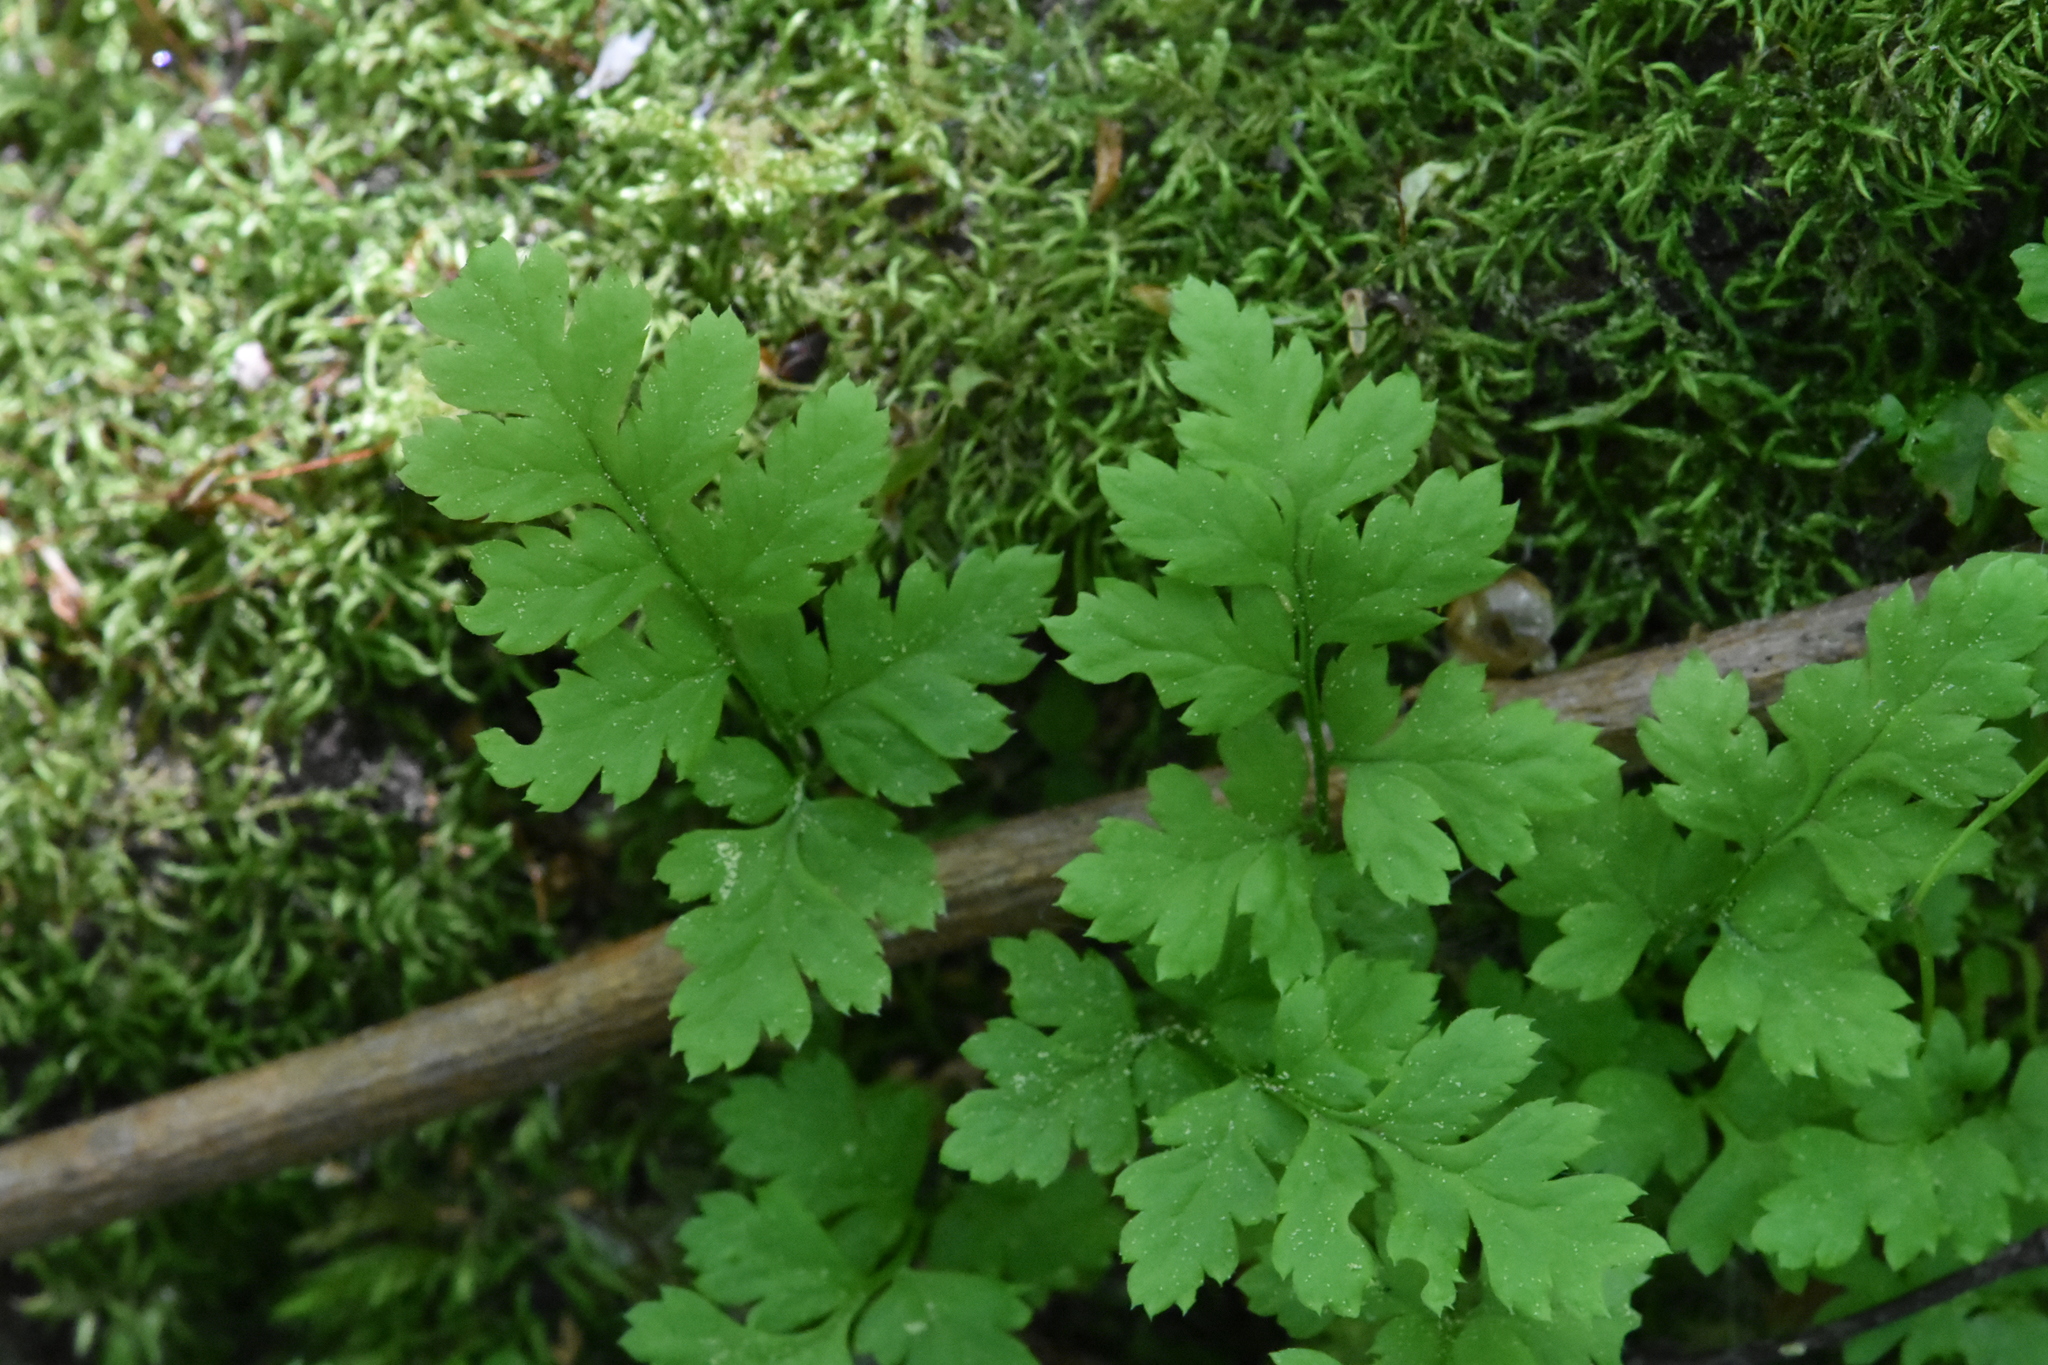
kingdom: Plantae
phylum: Tracheophyta
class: Polypodiopsida
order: Polypodiales
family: Dryopteridaceae
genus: Dryopteris
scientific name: Dryopteris carthusiana
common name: Narrow buckler-fern
